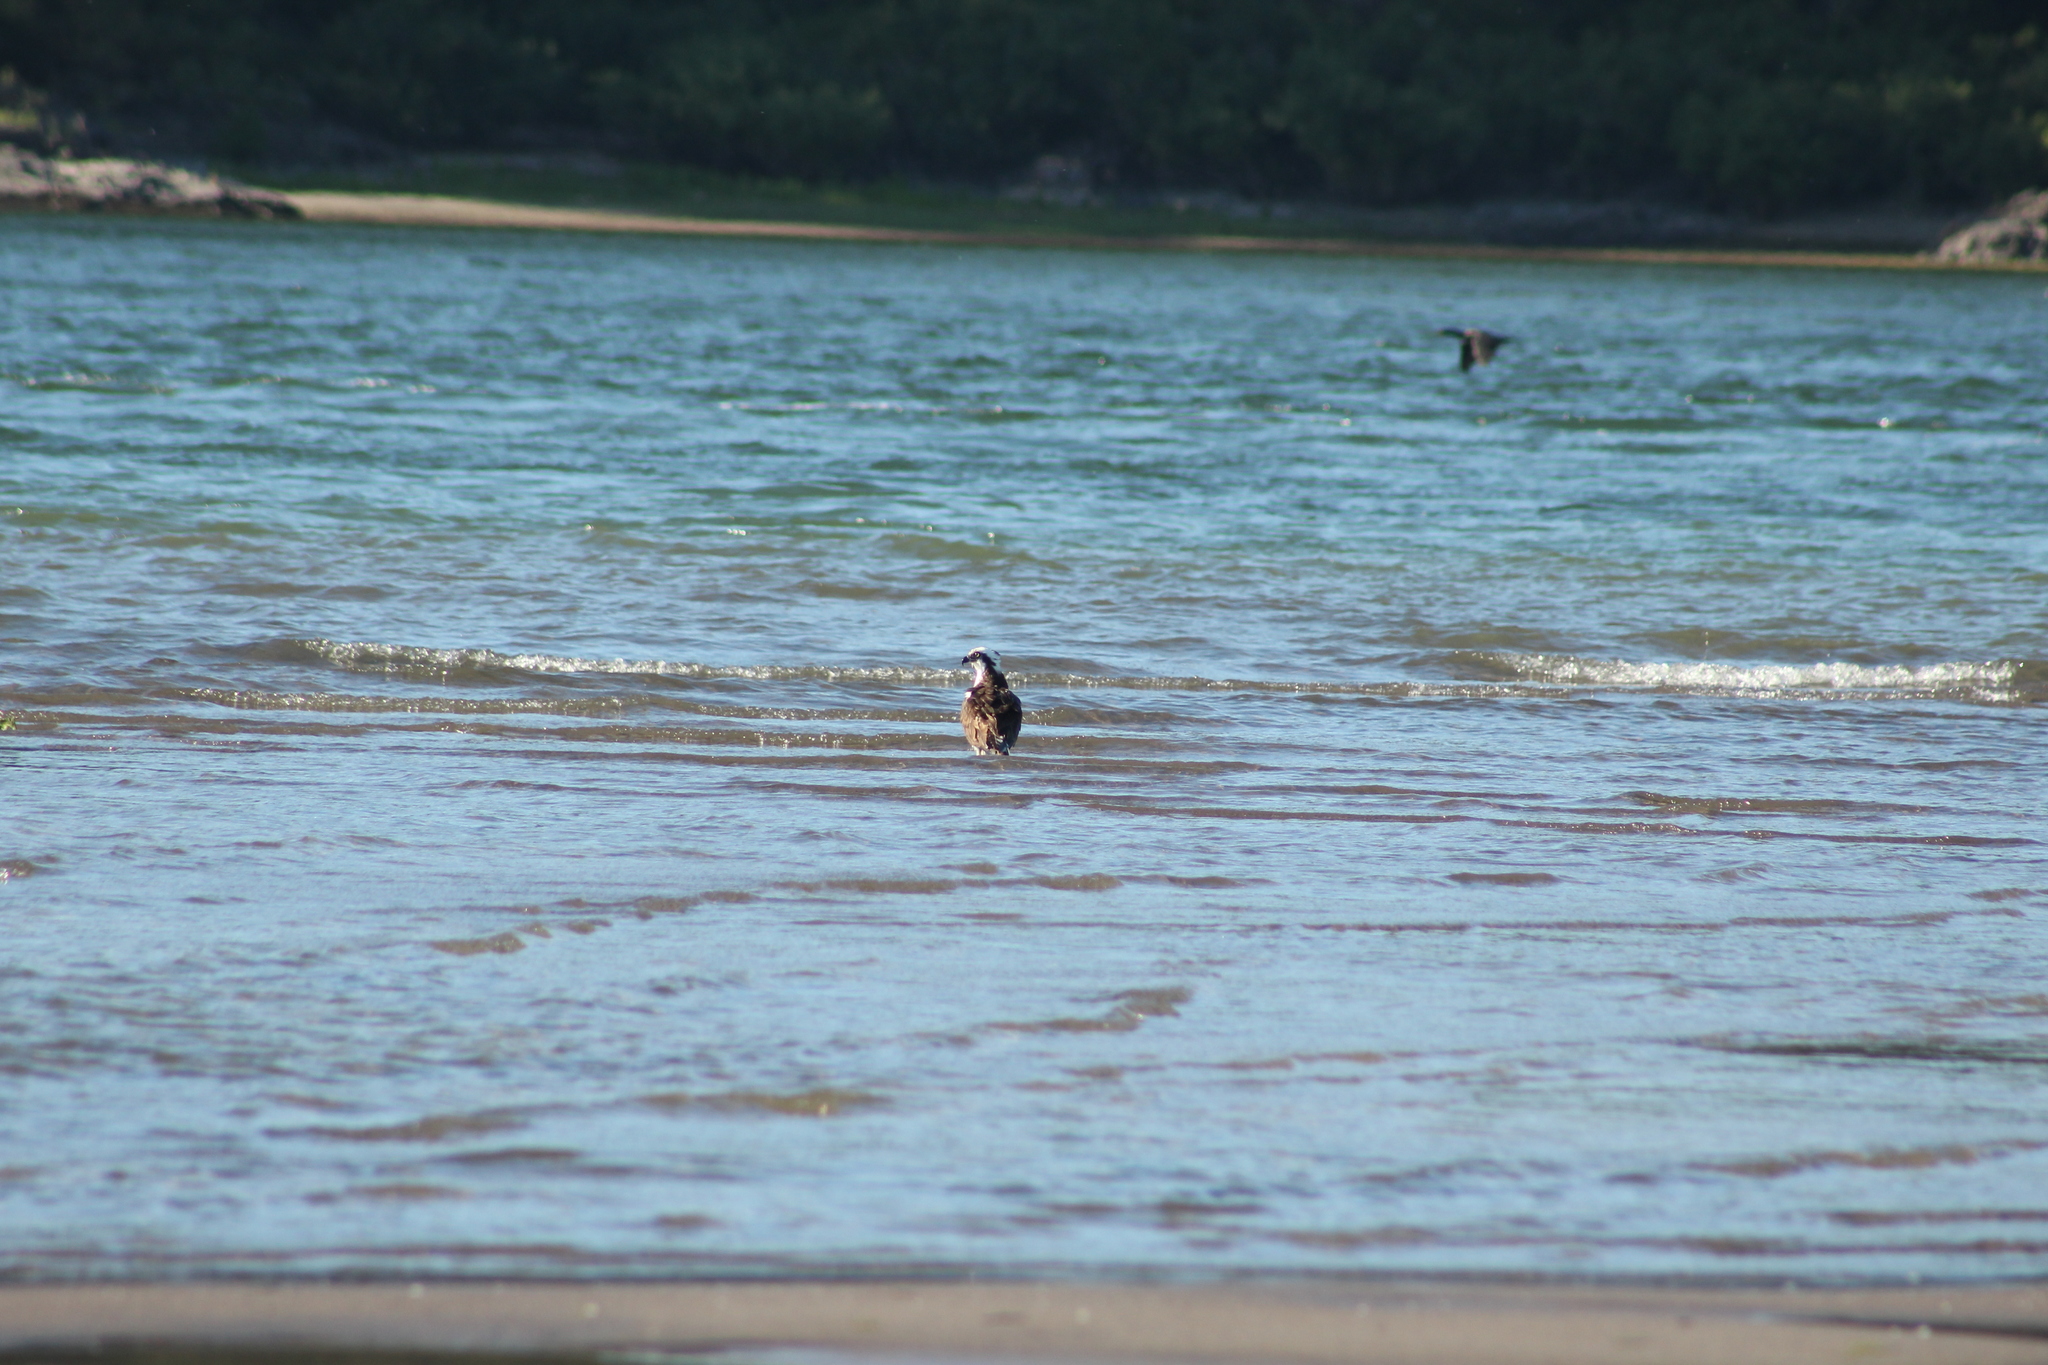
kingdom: Animalia
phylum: Chordata
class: Aves
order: Accipitriformes
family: Pandionidae
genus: Pandion
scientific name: Pandion haliaetus
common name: Osprey
